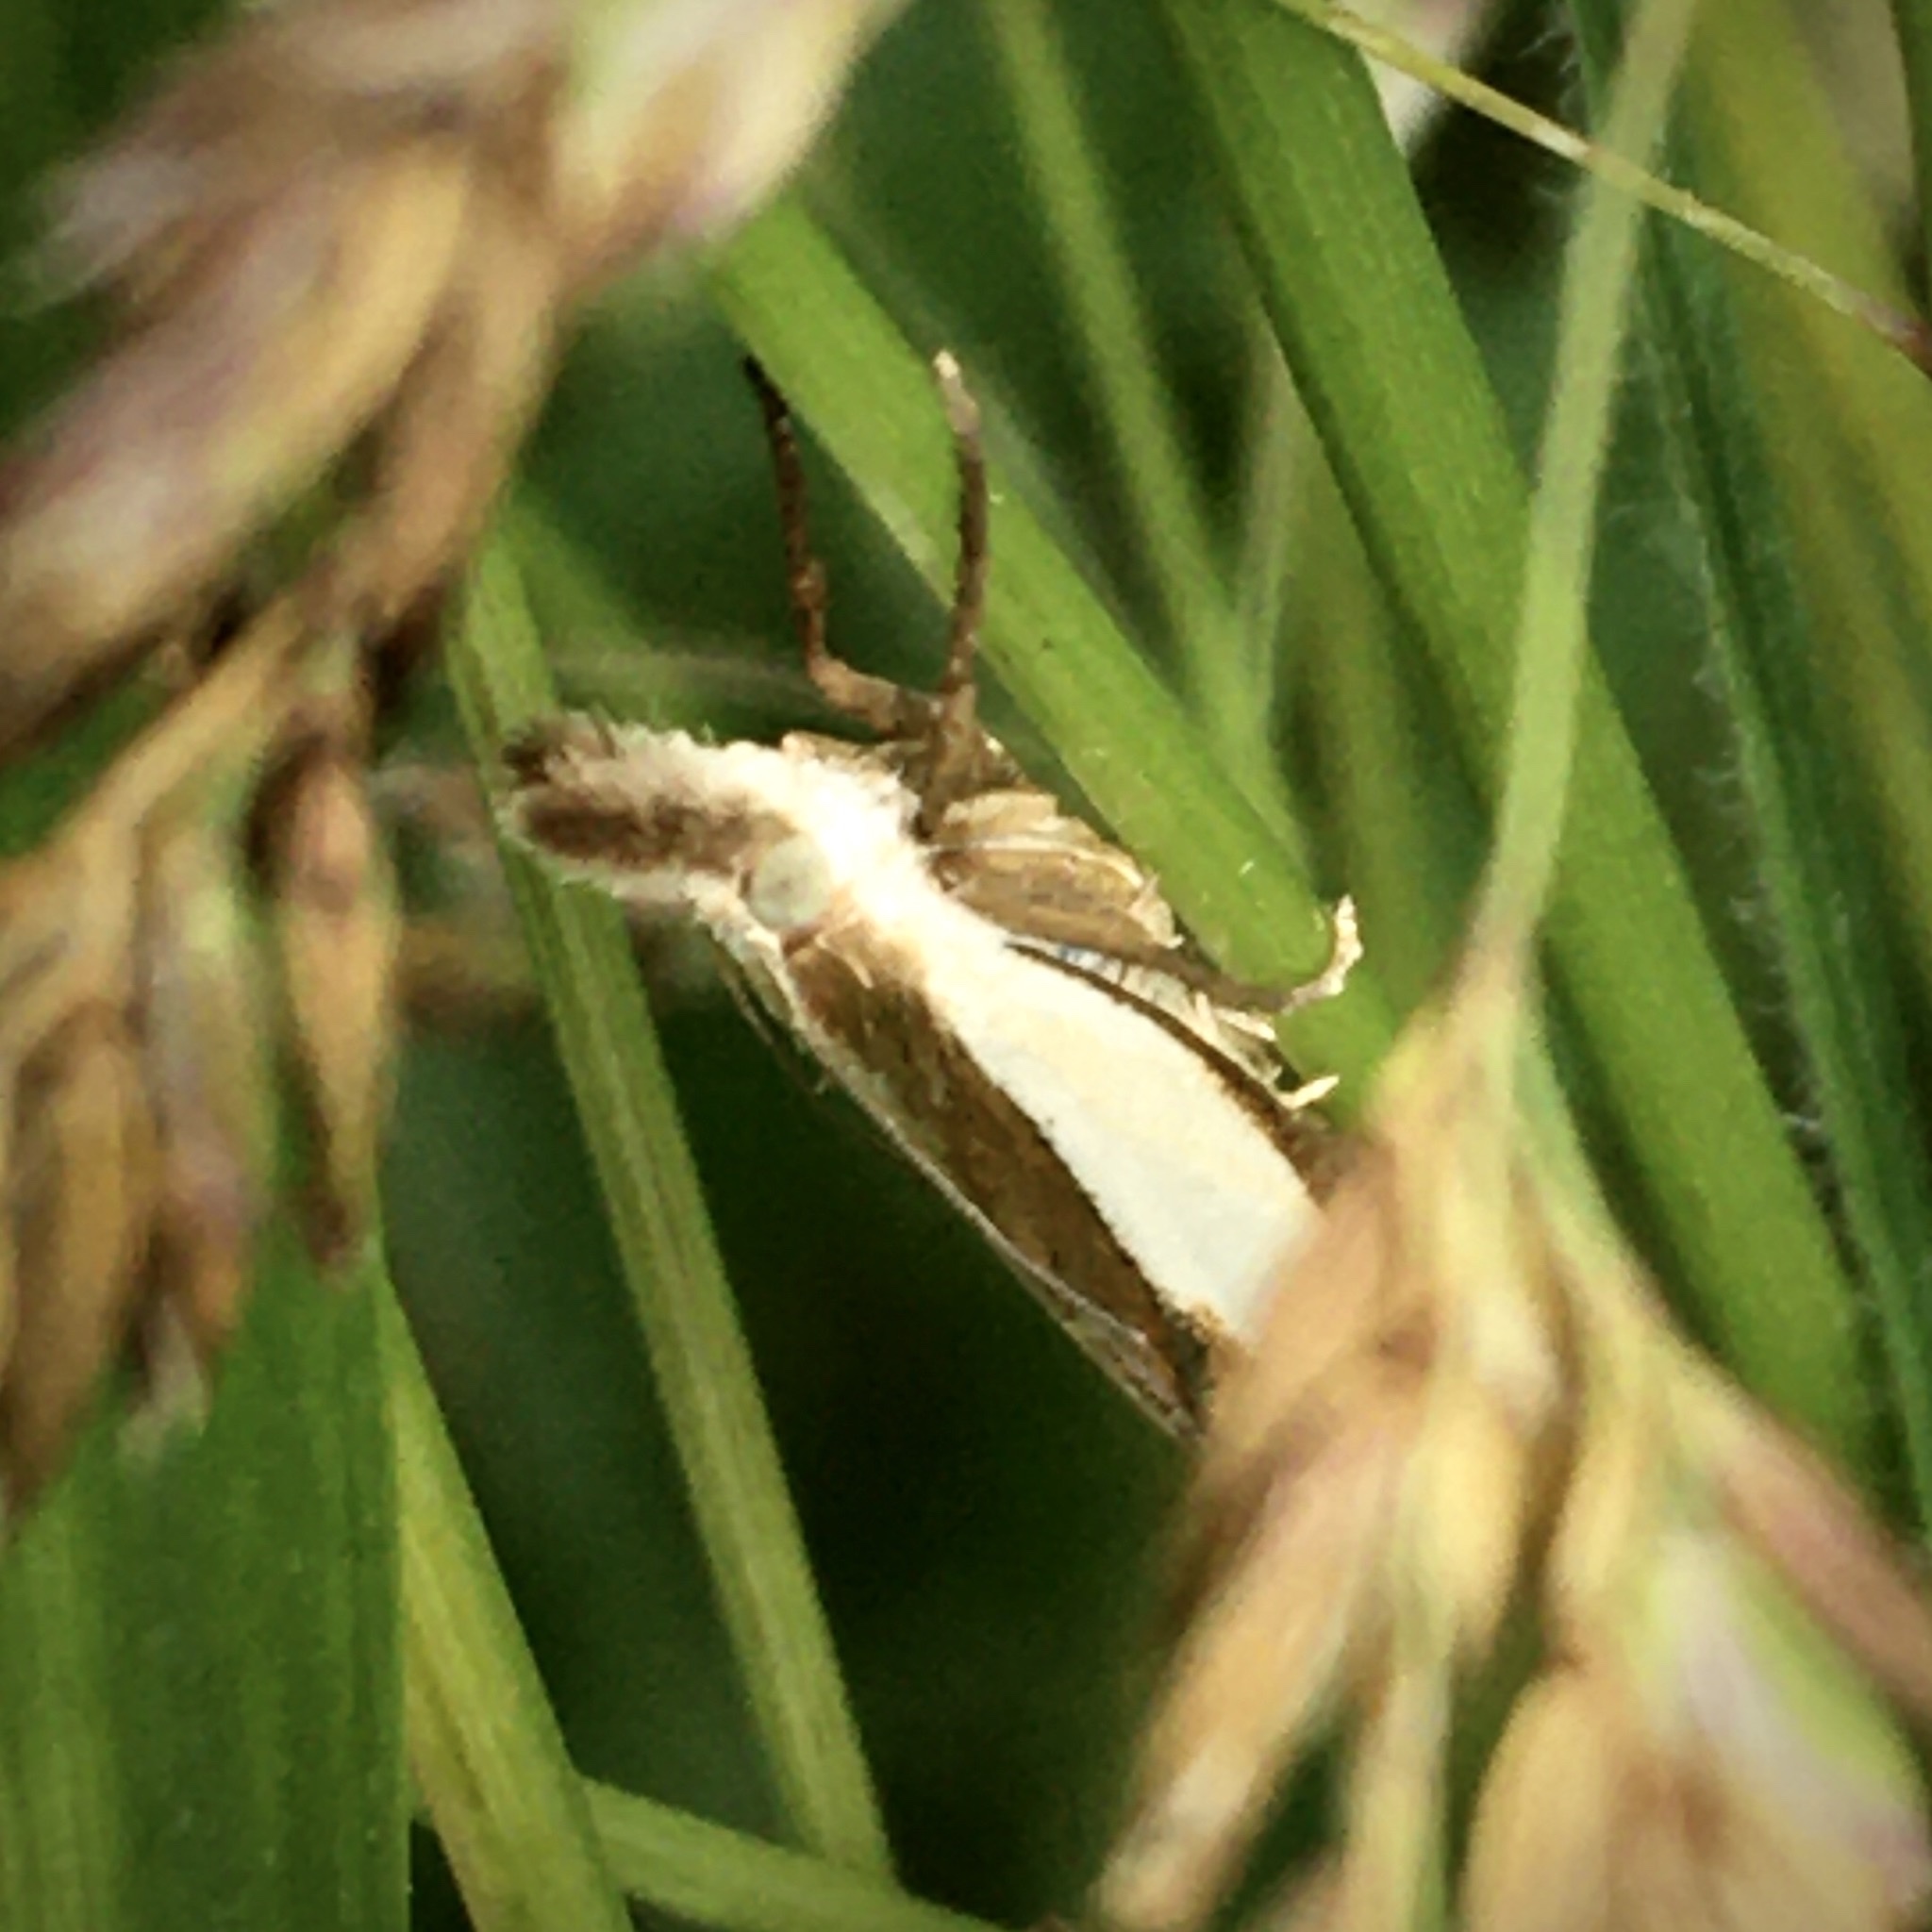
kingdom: Animalia
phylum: Arthropoda
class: Insecta
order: Lepidoptera
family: Crambidae
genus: Crambus
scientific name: Crambus pascuella
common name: Inlaid grass-veneer
